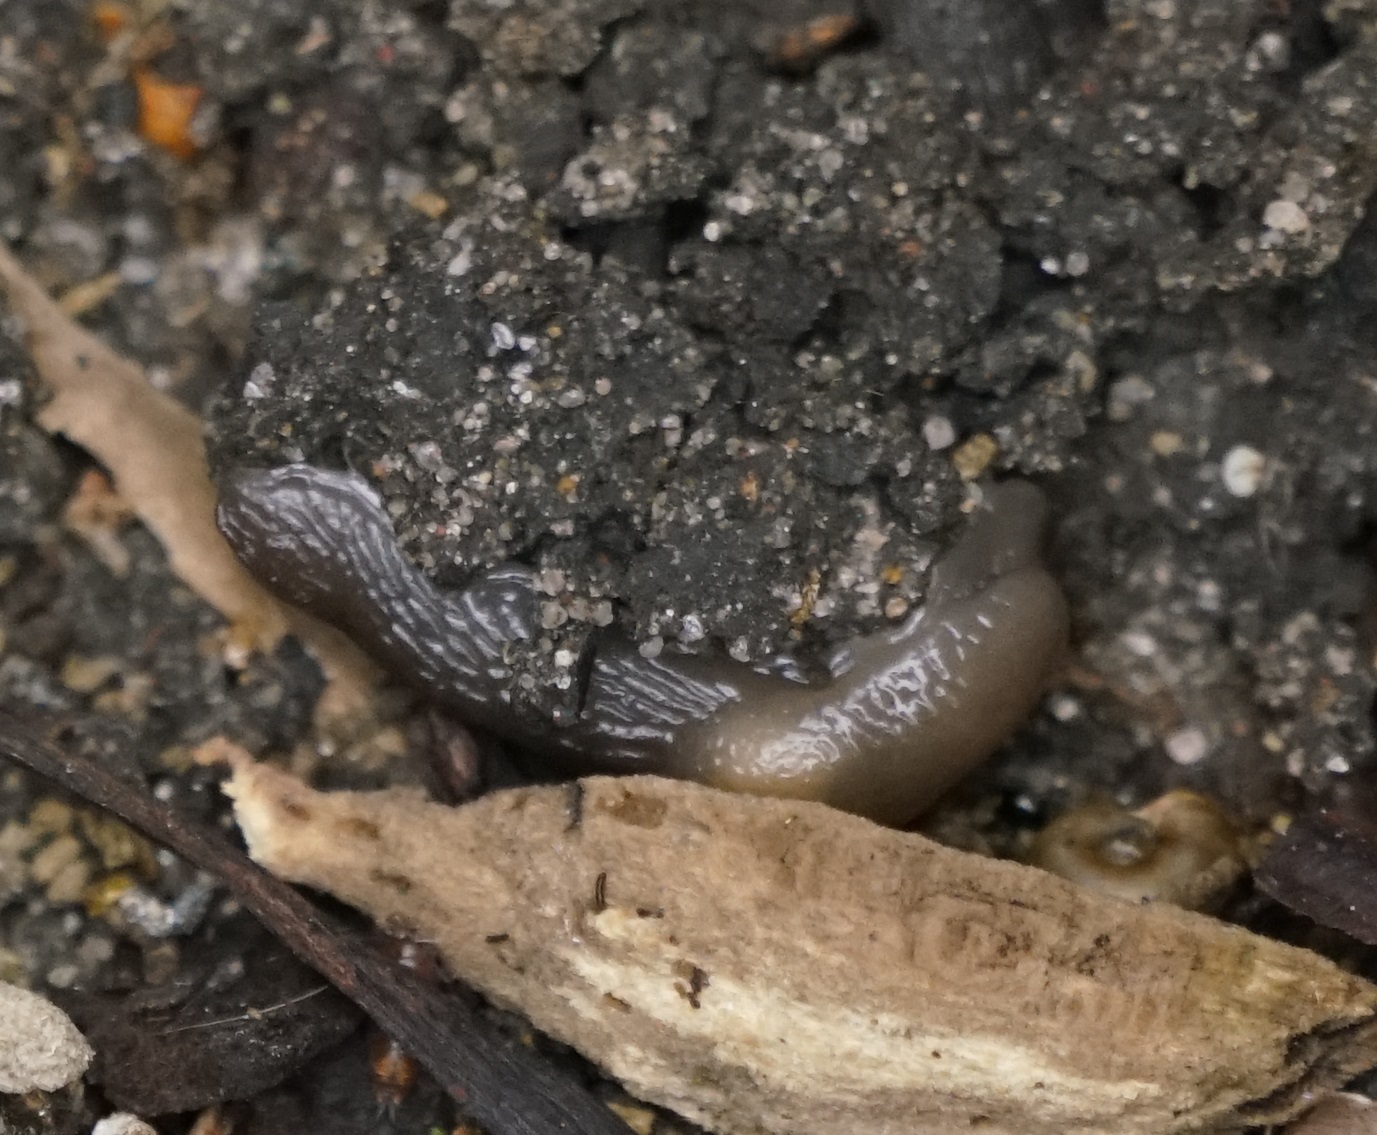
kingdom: Animalia
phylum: Mollusca
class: Gastropoda
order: Stylommatophora
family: Agriolimacidae
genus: Deroceras
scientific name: Deroceras invadens
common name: Caruana's slug
